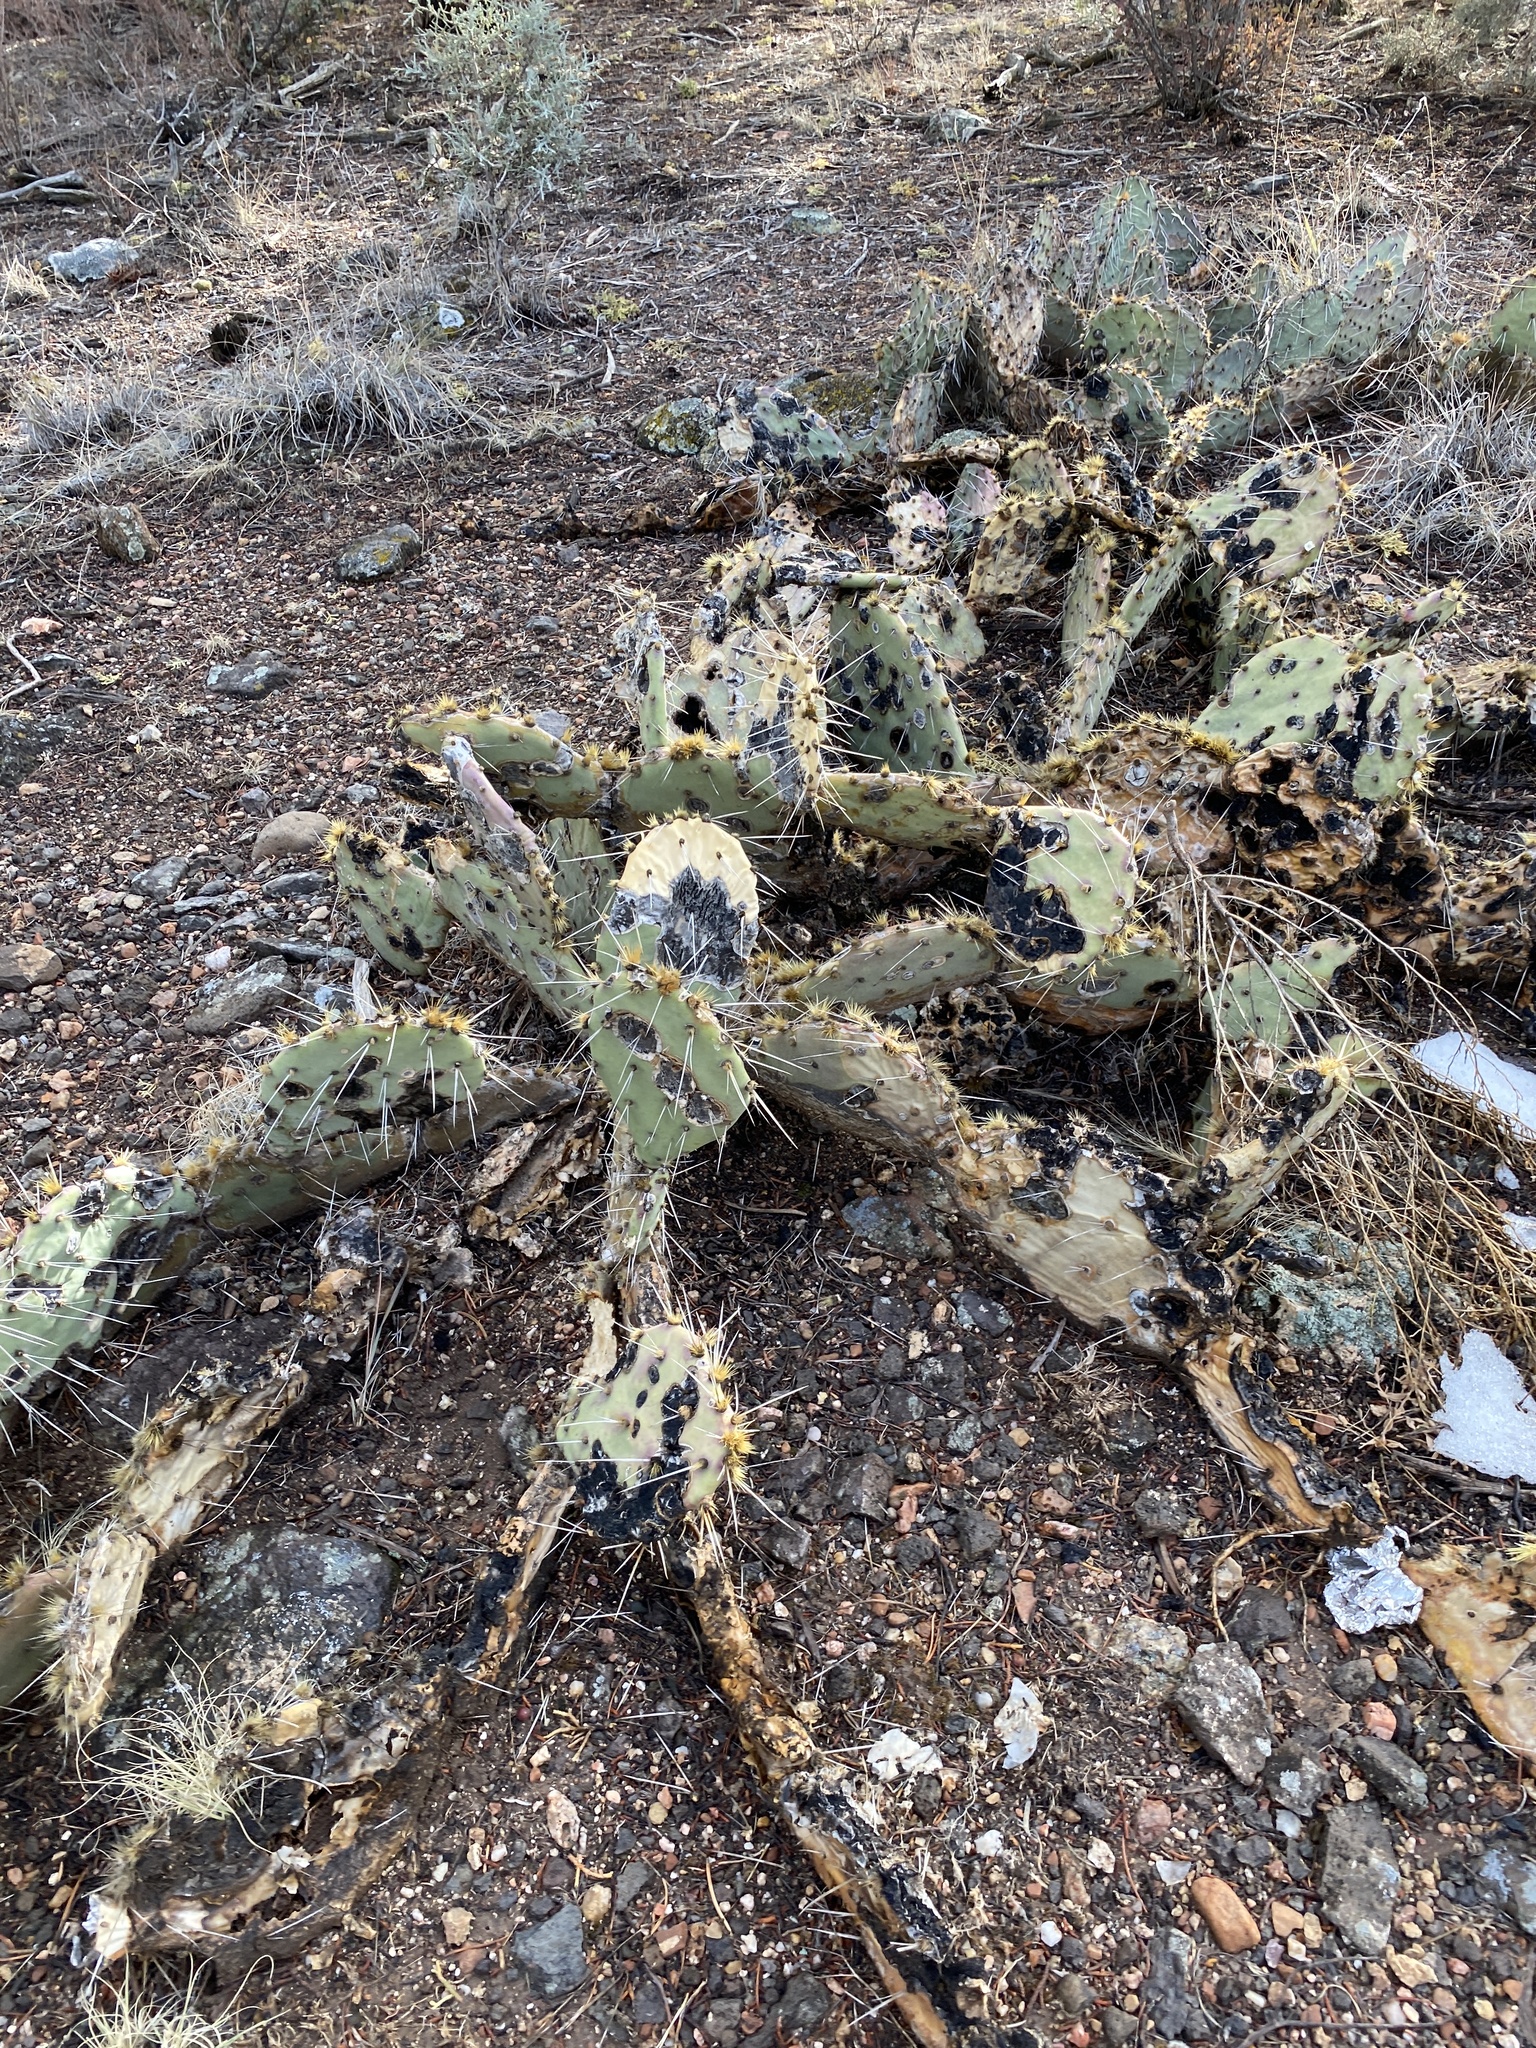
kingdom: Plantae
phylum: Tracheophyta
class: Magnoliopsida
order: Caryophyllales
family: Cactaceae
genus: Opuntia
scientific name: Opuntia phaeacantha
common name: New mexico prickly-pear
